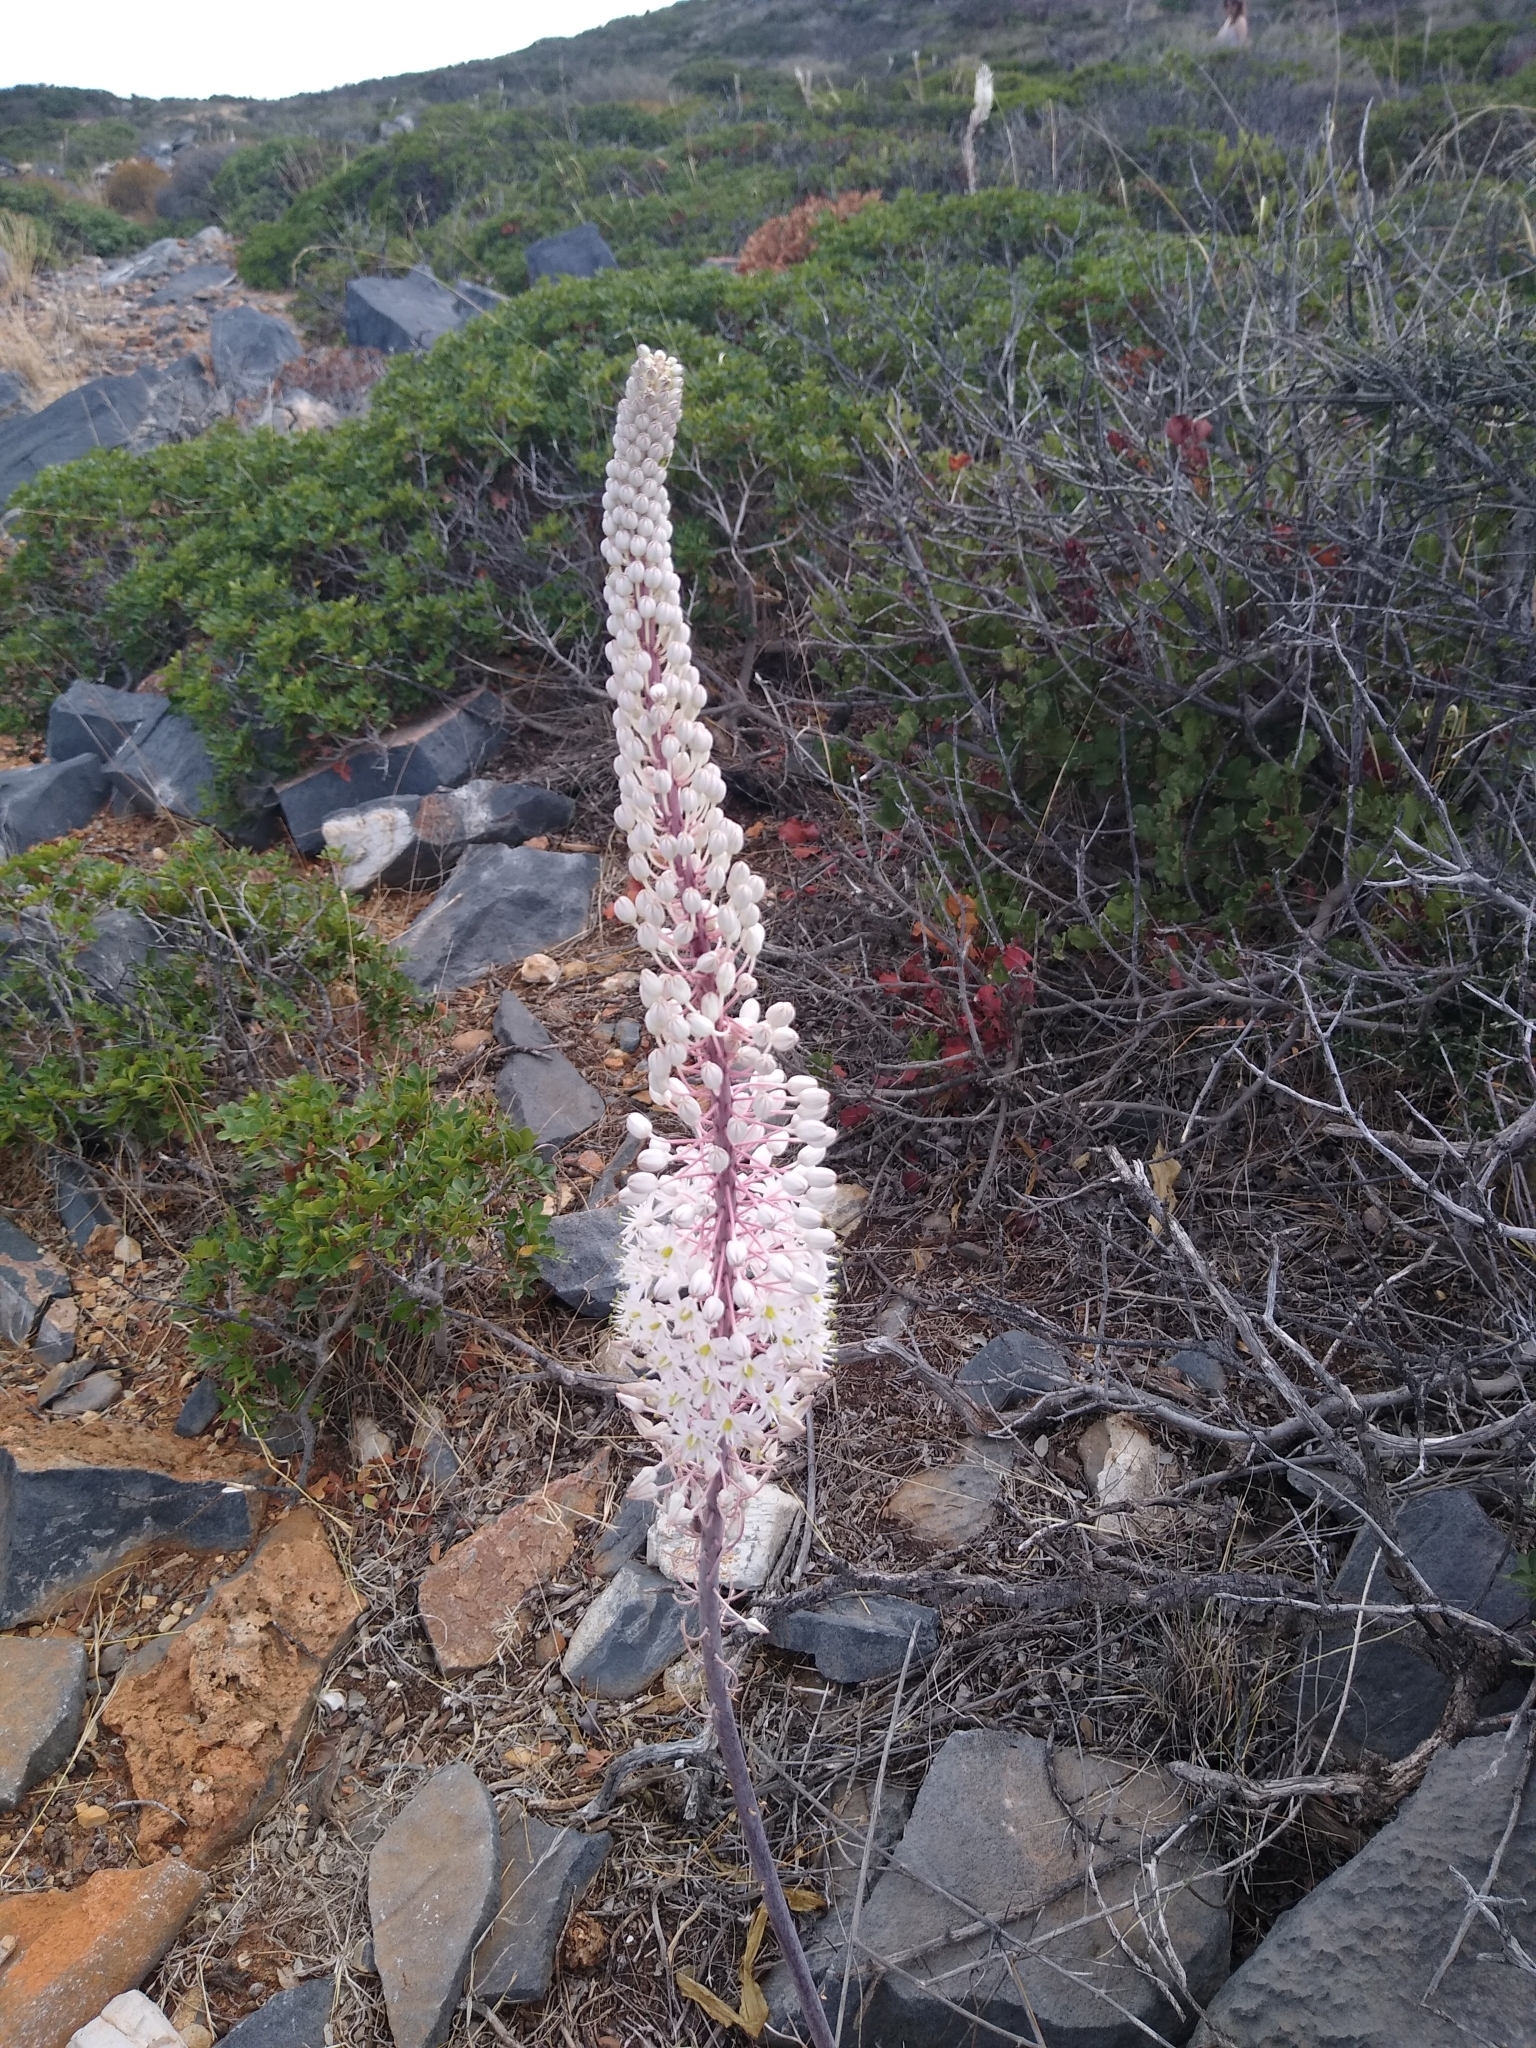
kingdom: Plantae
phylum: Tracheophyta
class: Liliopsida
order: Asparagales
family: Asparagaceae
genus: Drimia
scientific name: Drimia numidica
